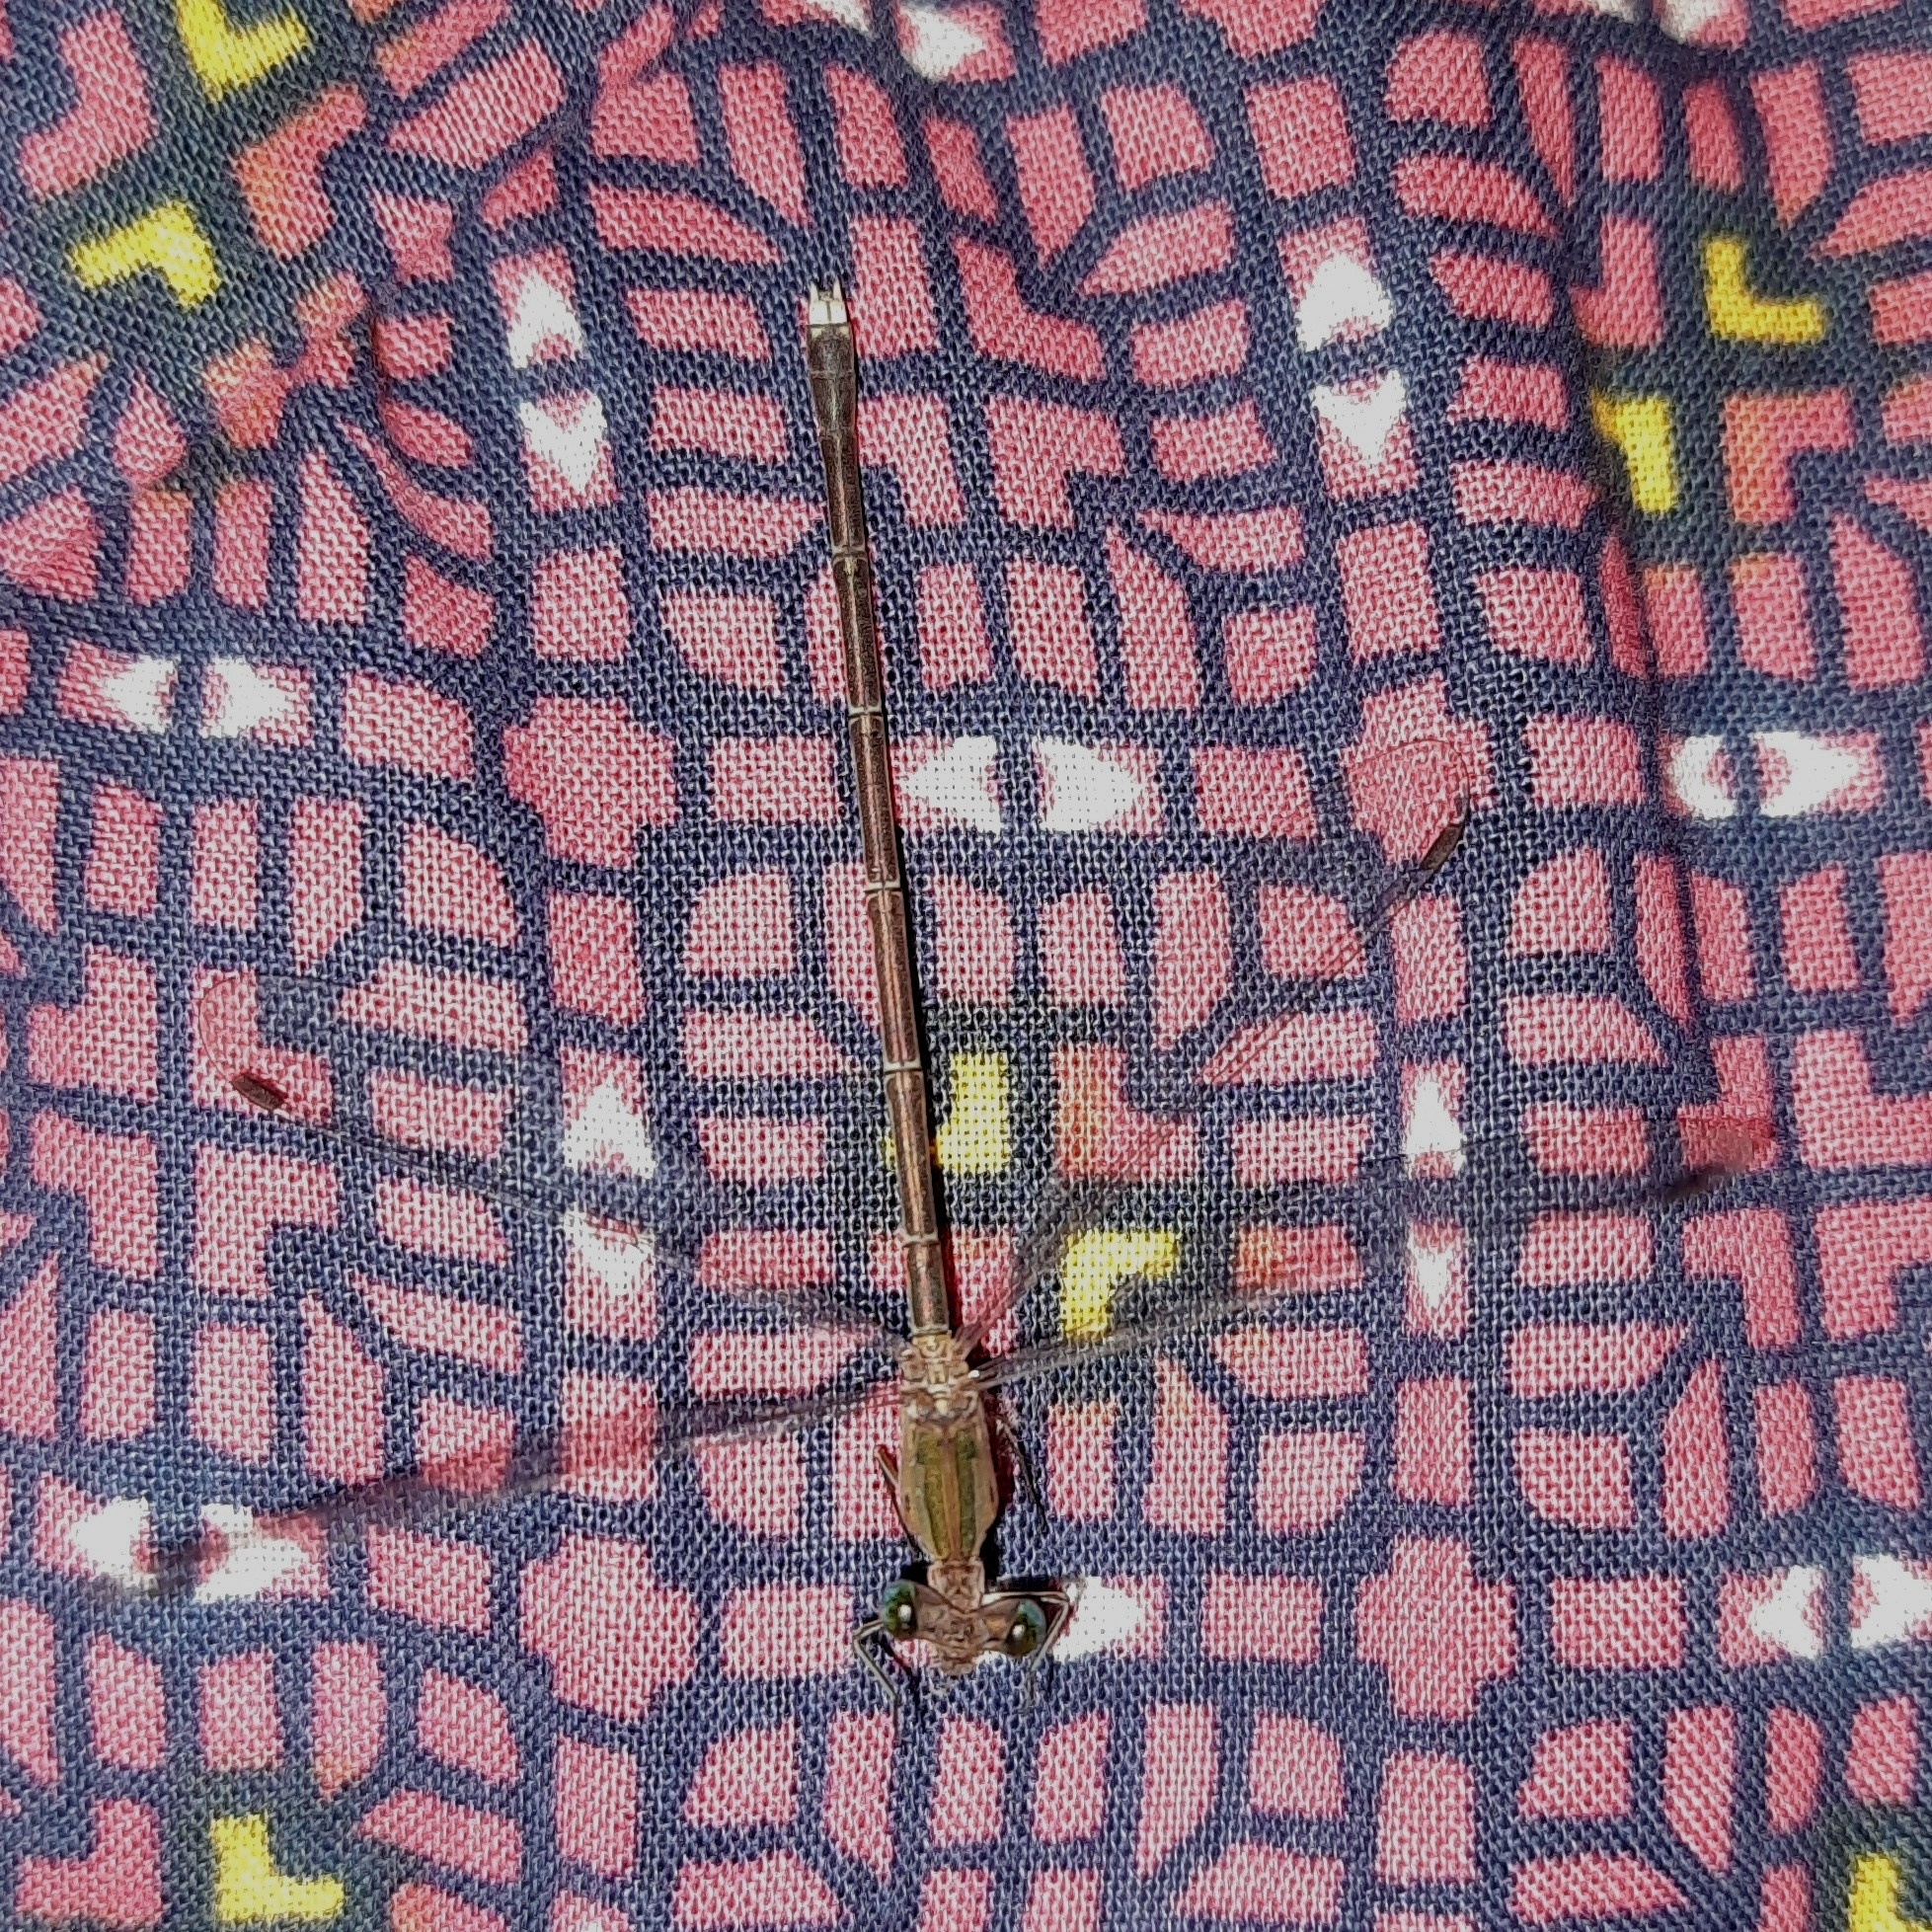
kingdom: Animalia
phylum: Arthropoda
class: Insecta
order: Odonata
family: Lestidae
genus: Lestes
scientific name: Lestes elatus
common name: Emerald spreadwing
